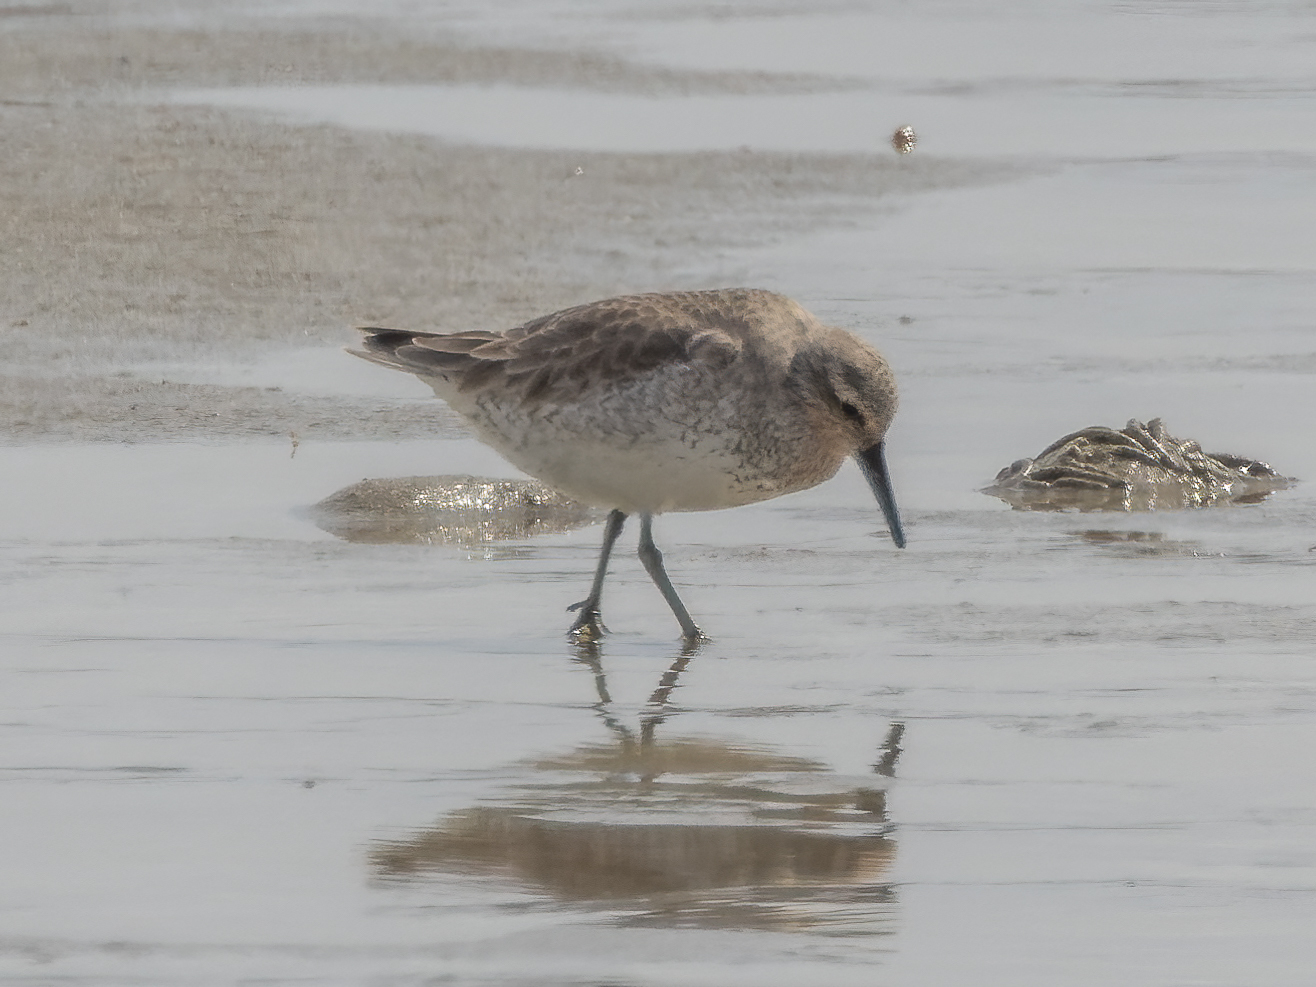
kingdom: Animalia
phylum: Chordata
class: Aves
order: Charadriiformes
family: Scolopacidae
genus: Calidris
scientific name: Calidris canutus
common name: Red knot
